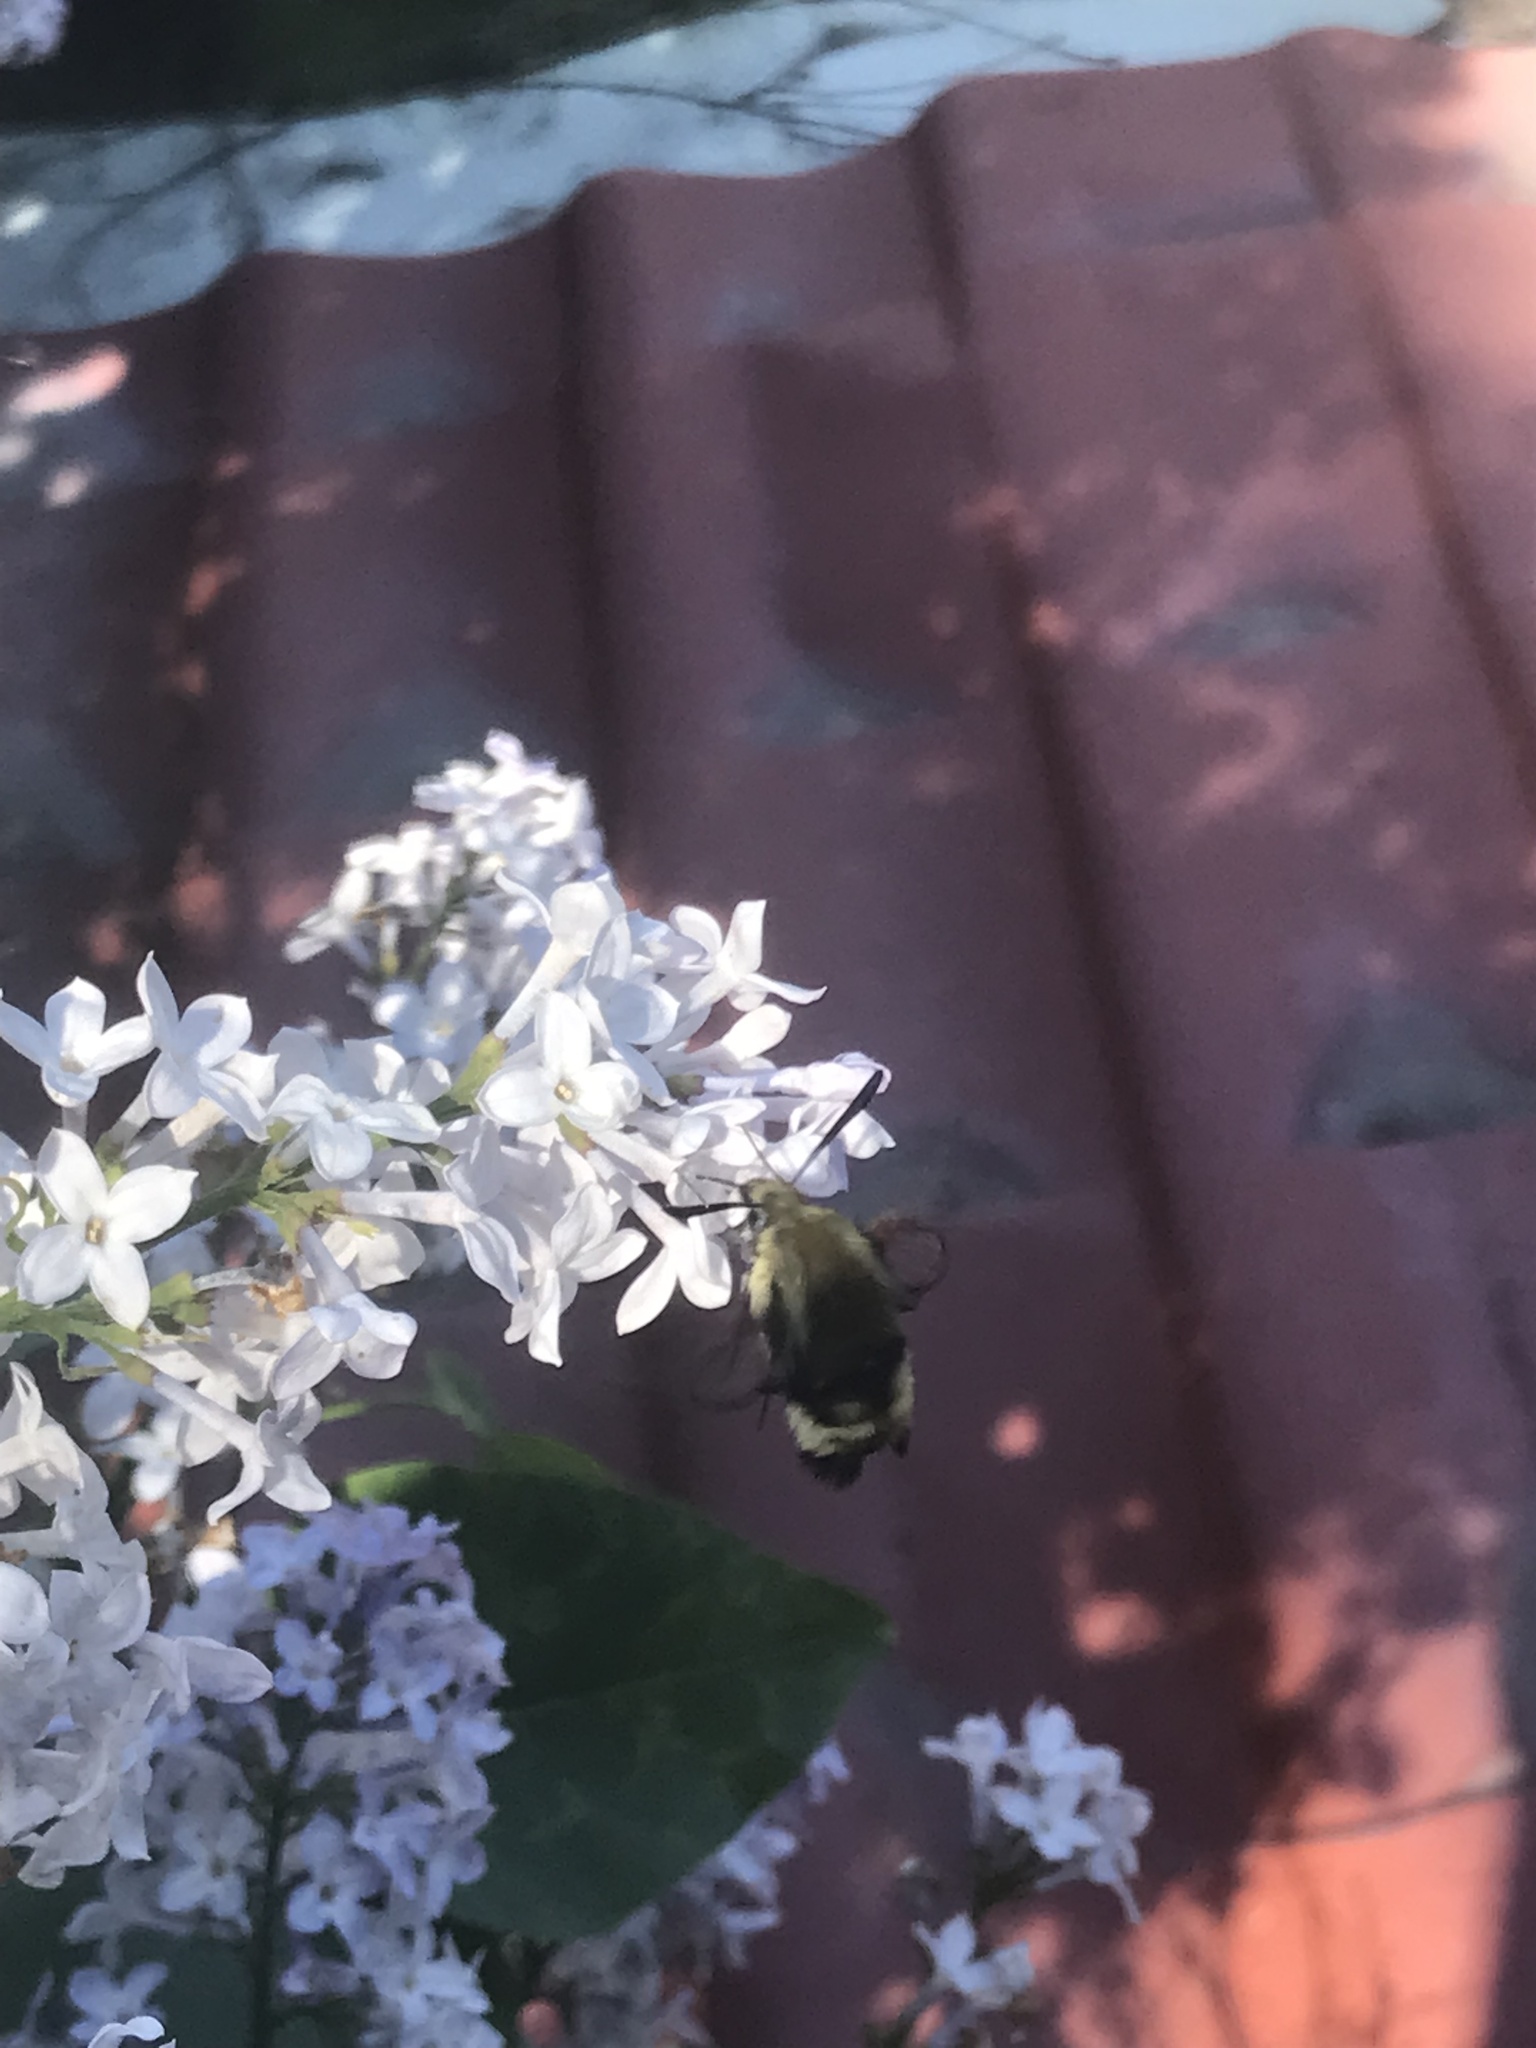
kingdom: Animalia
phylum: Arthropoda
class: Insecta
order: Lepidoptera
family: Sphingidae
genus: Hemaris
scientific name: Hemaris thetis
